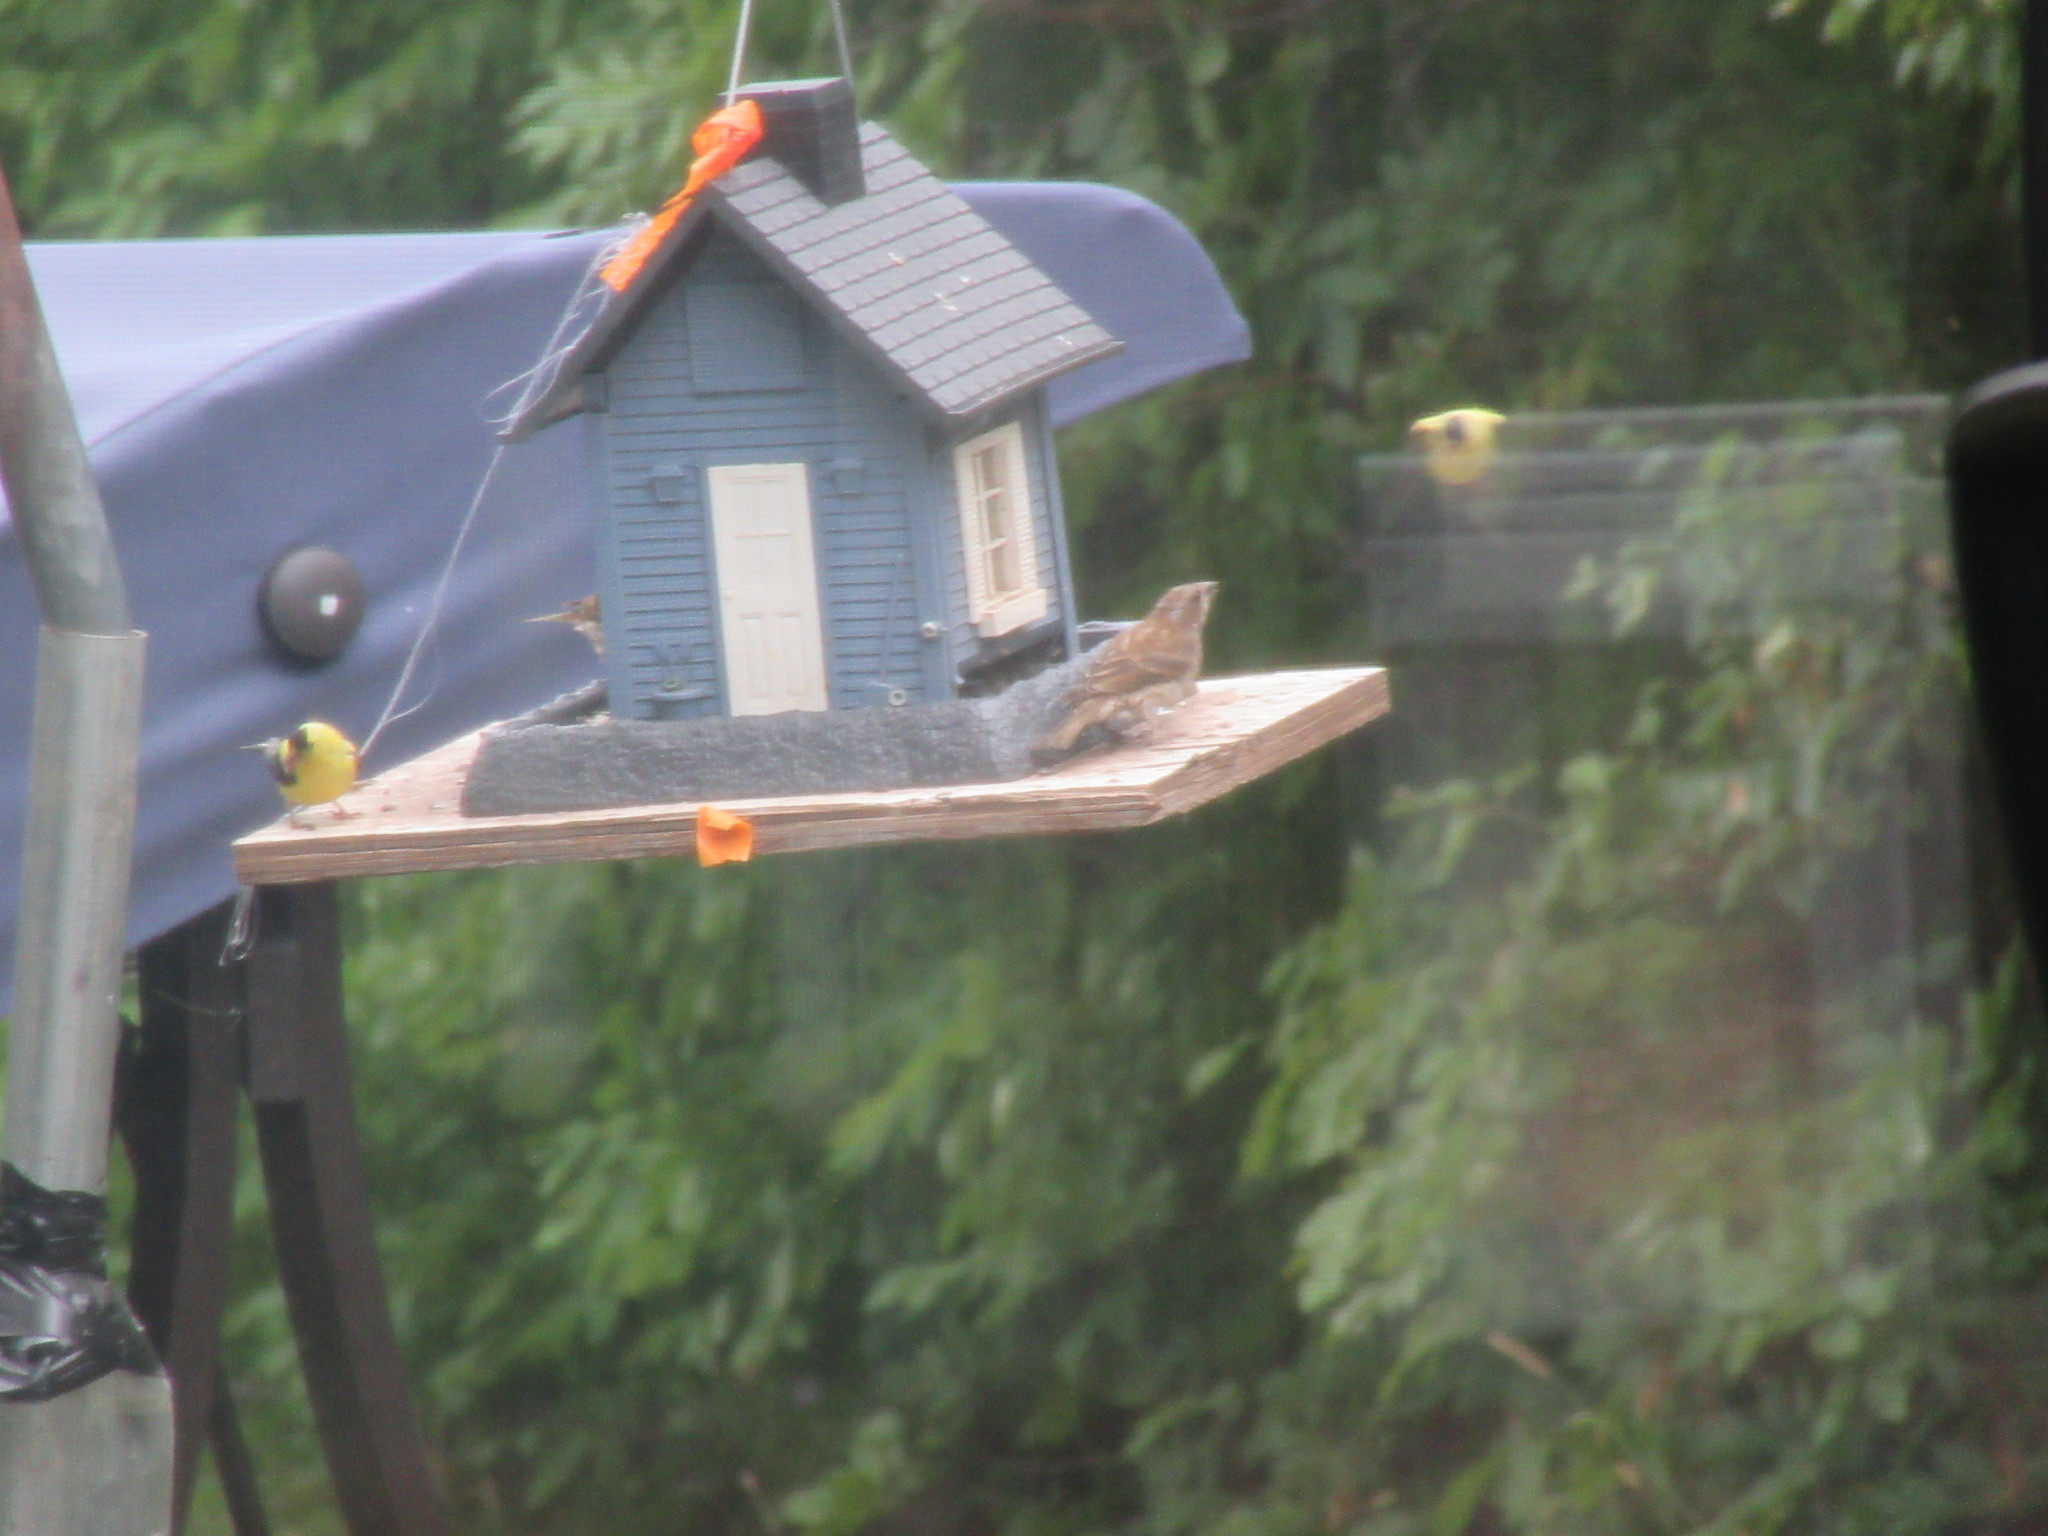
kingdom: Animalia
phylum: Chordata
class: Aves
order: Passeriformes
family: Fringillidae
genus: Haemorhous
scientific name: Haemorhous purpureus
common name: Purple finch
